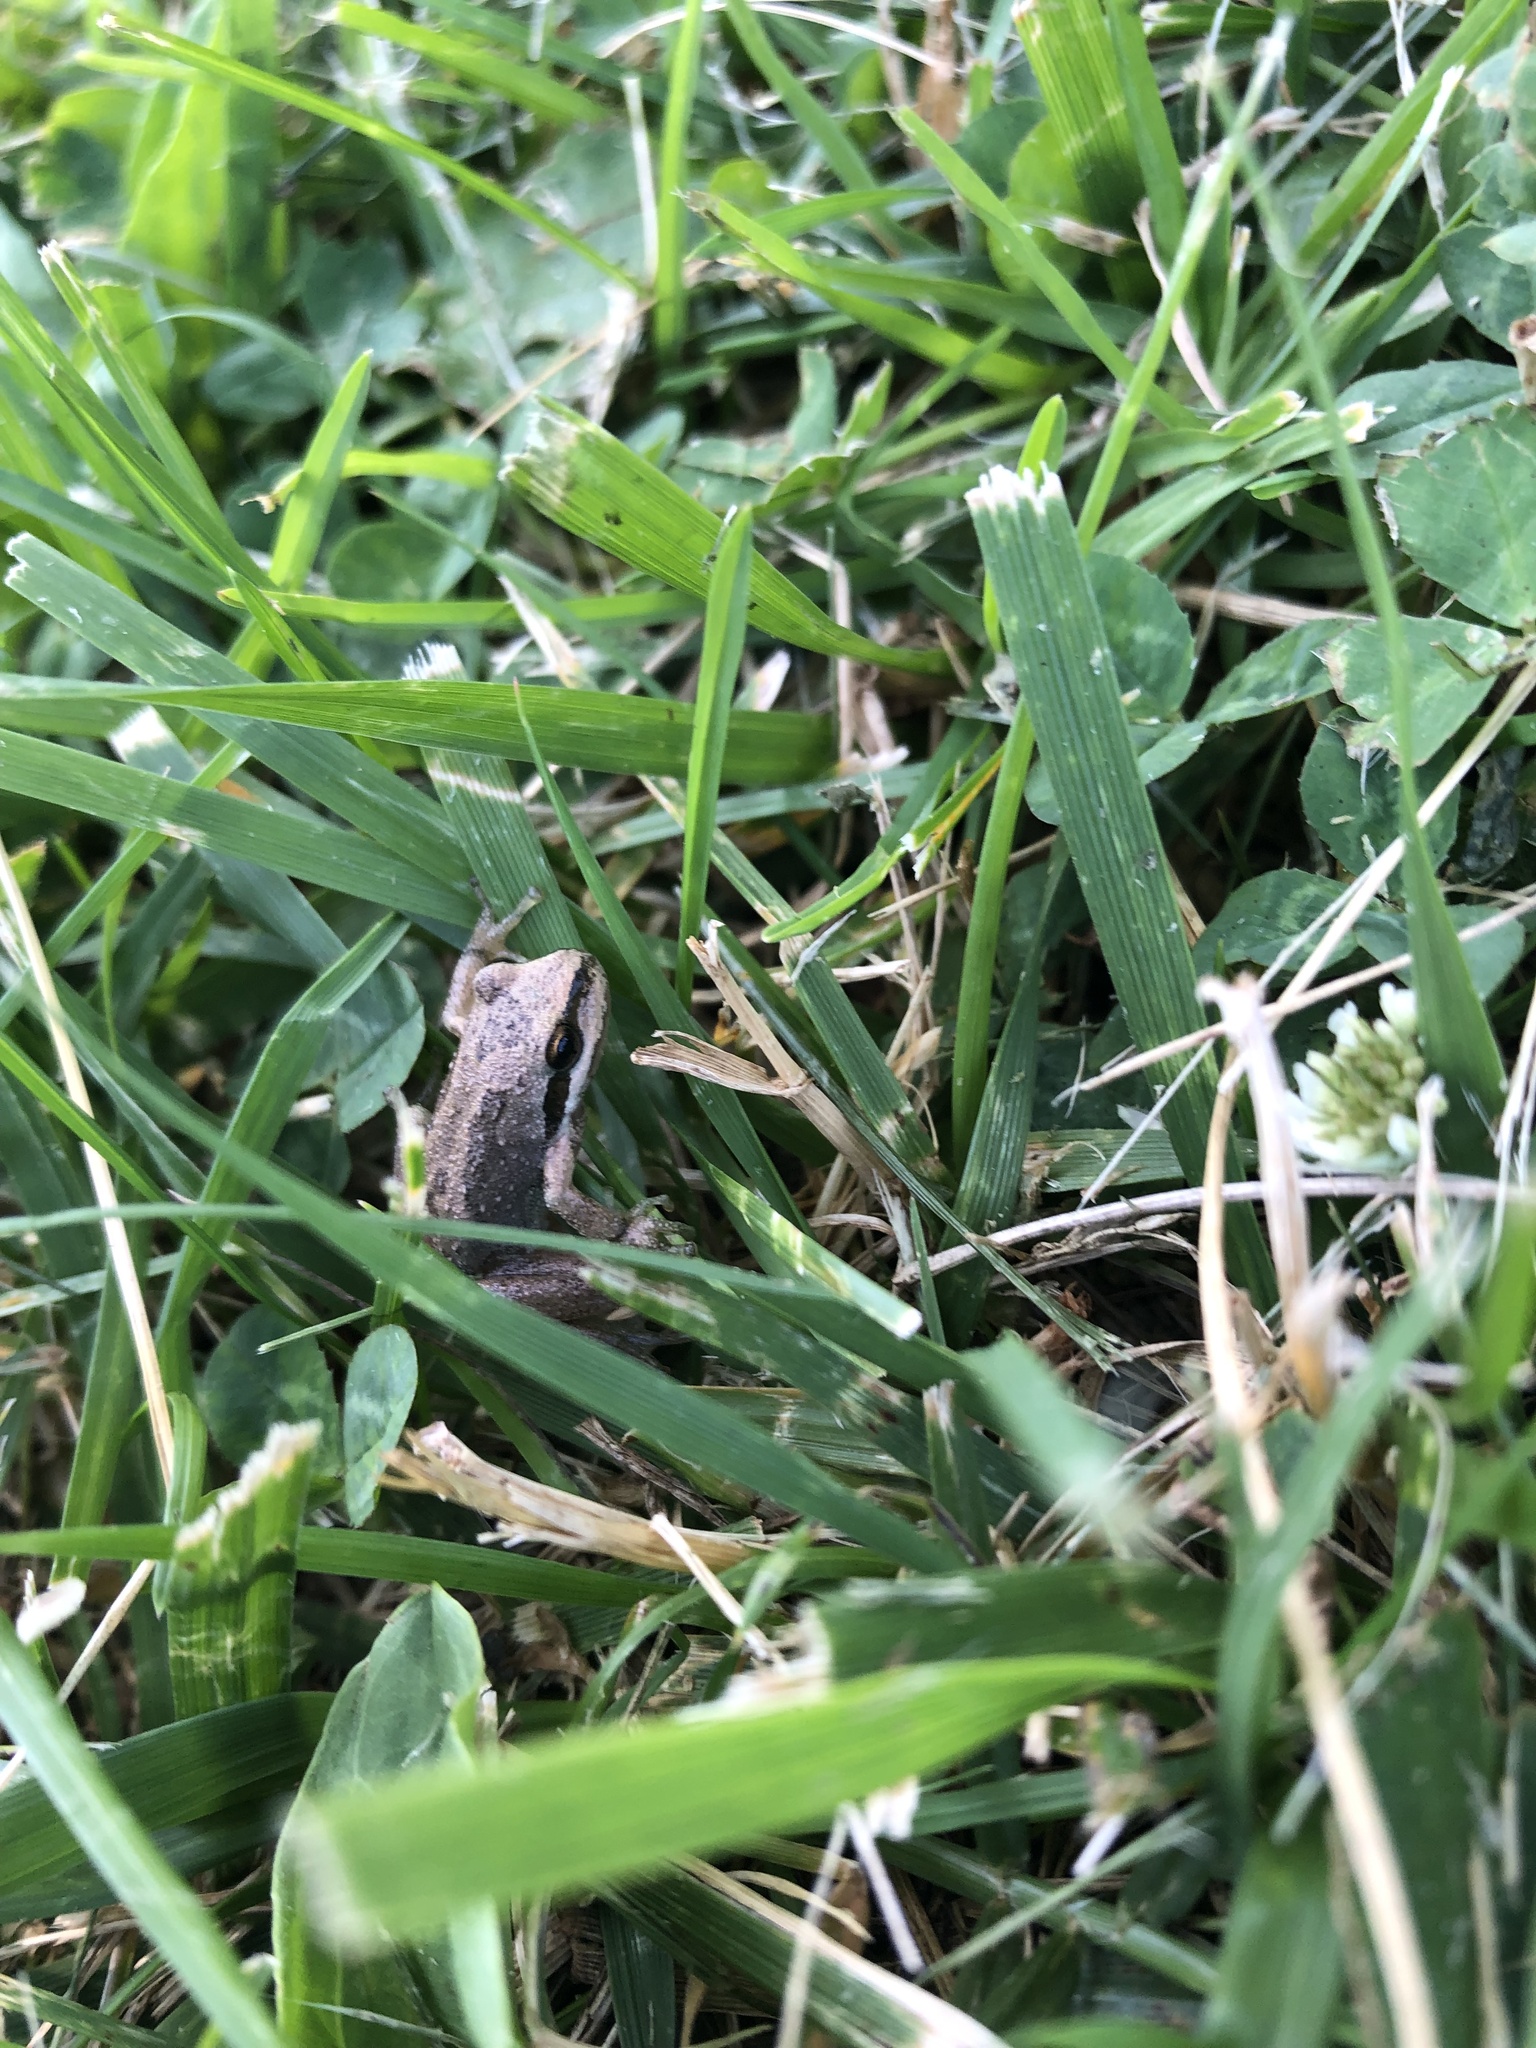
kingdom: Animalia
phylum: Chordata
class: Amphibia
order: Anura
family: Hylidae
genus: Pseudacris
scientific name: Pseudacris regilla
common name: Pacific chorus frog
